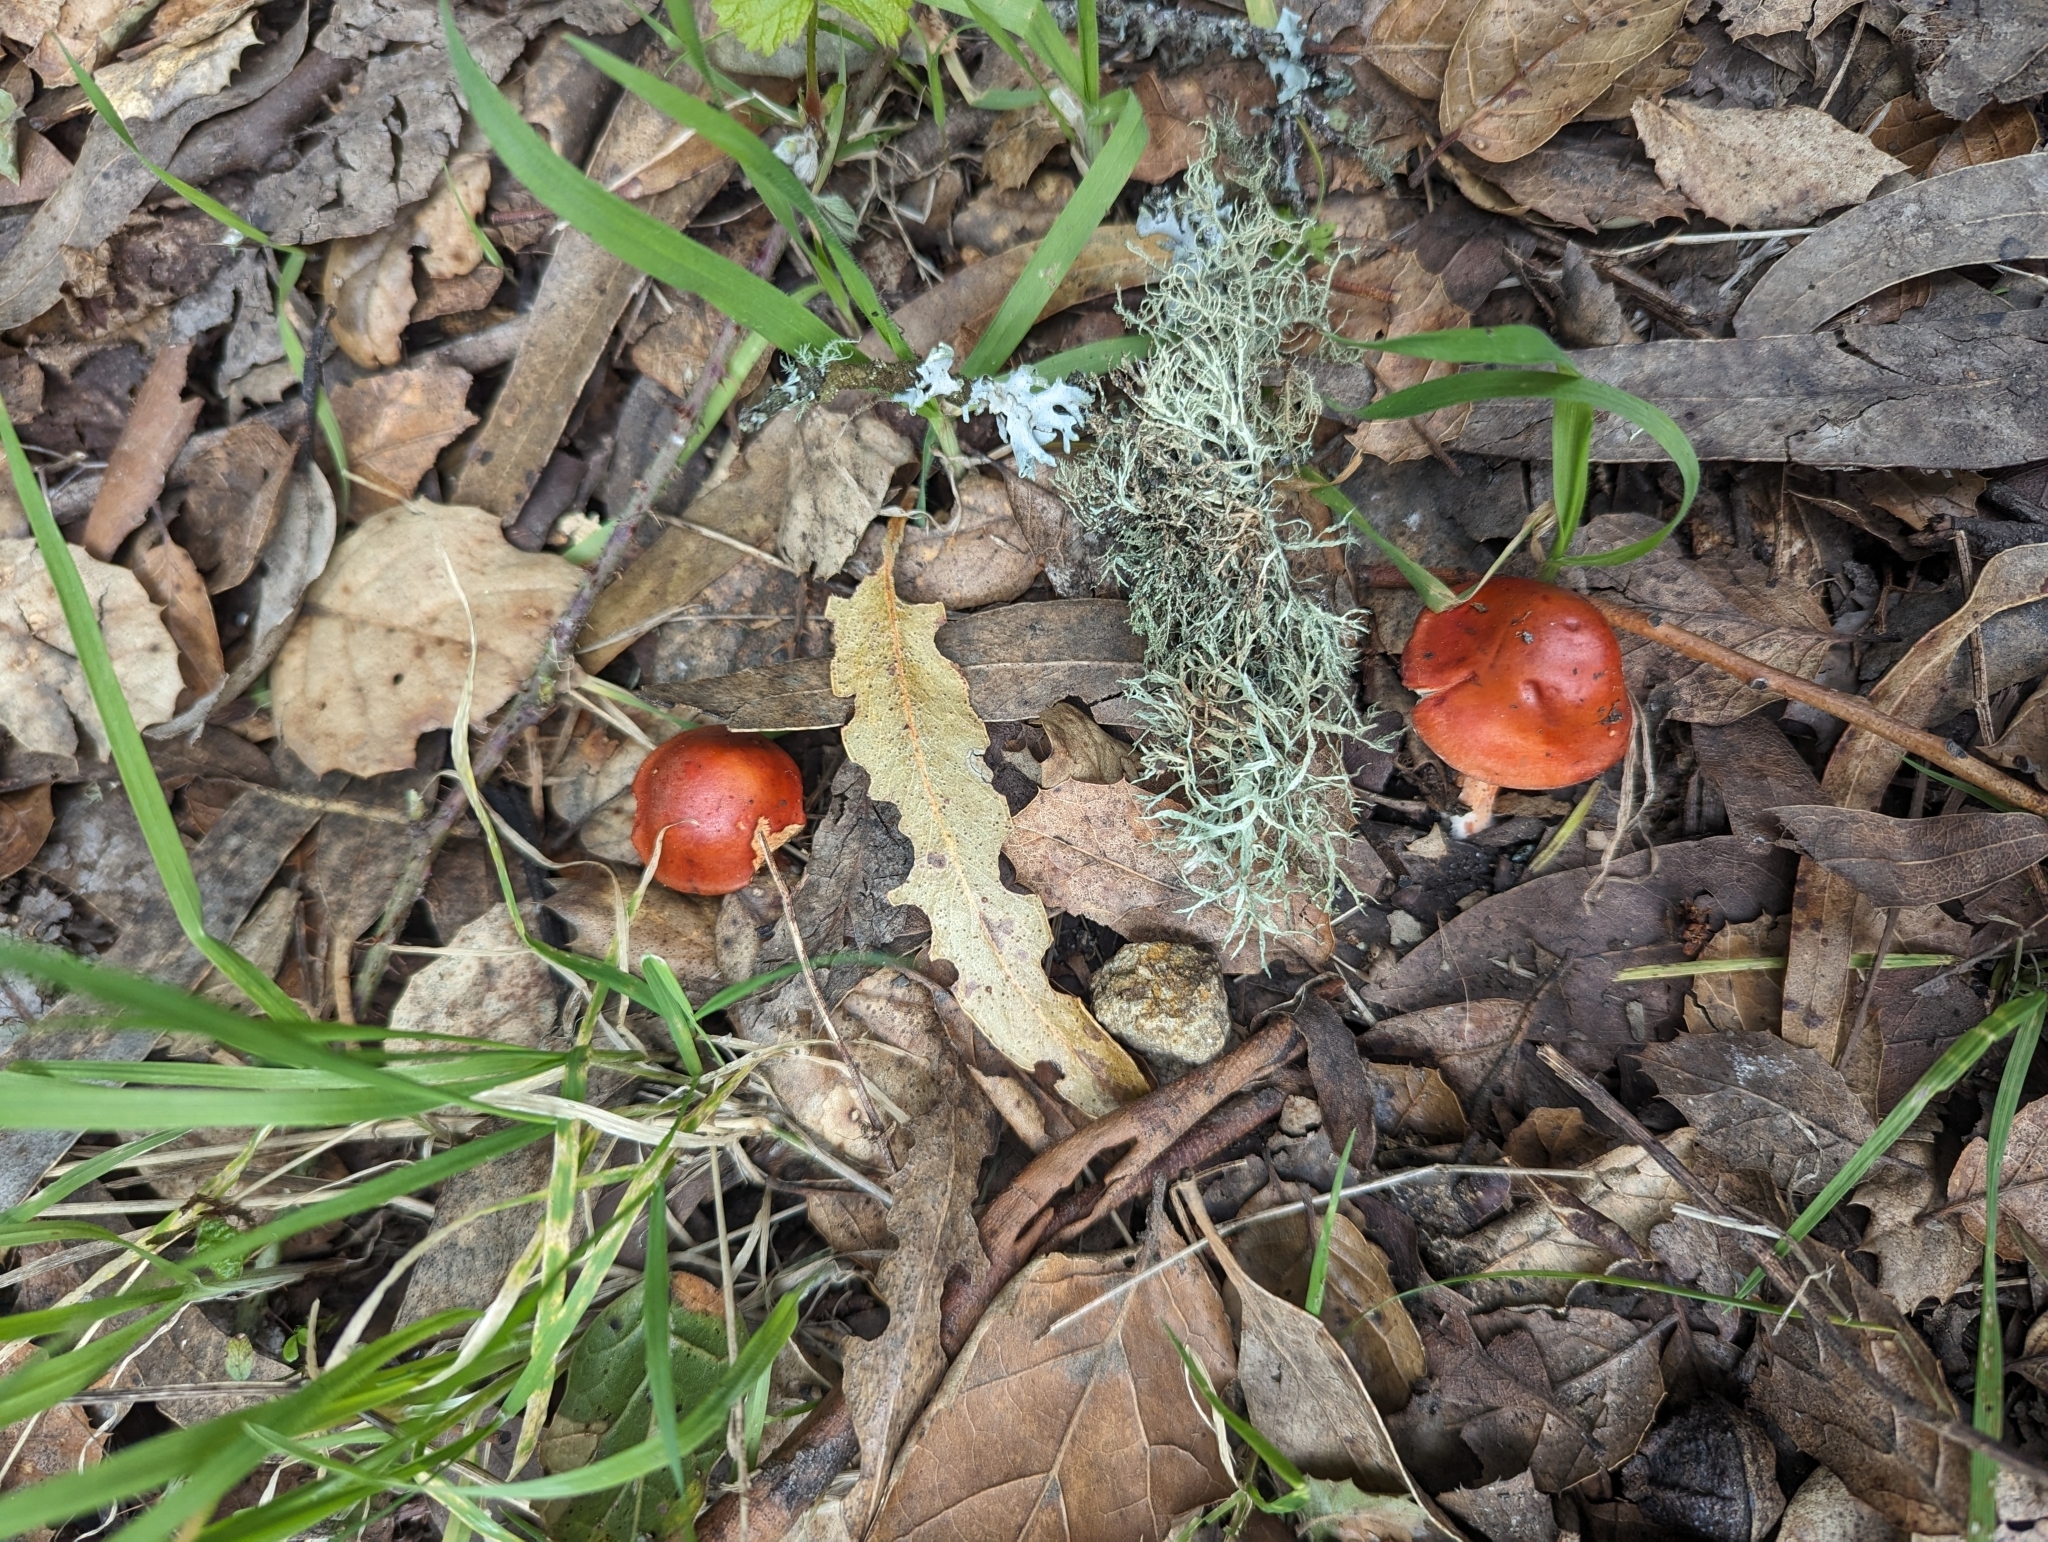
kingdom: Fungi
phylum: Basidiomycota
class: Agaricomycetes
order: Agaricales
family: Strophariaceae
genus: Leratiomyces
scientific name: Leratiomyces ceres
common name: Redlead roundhead
